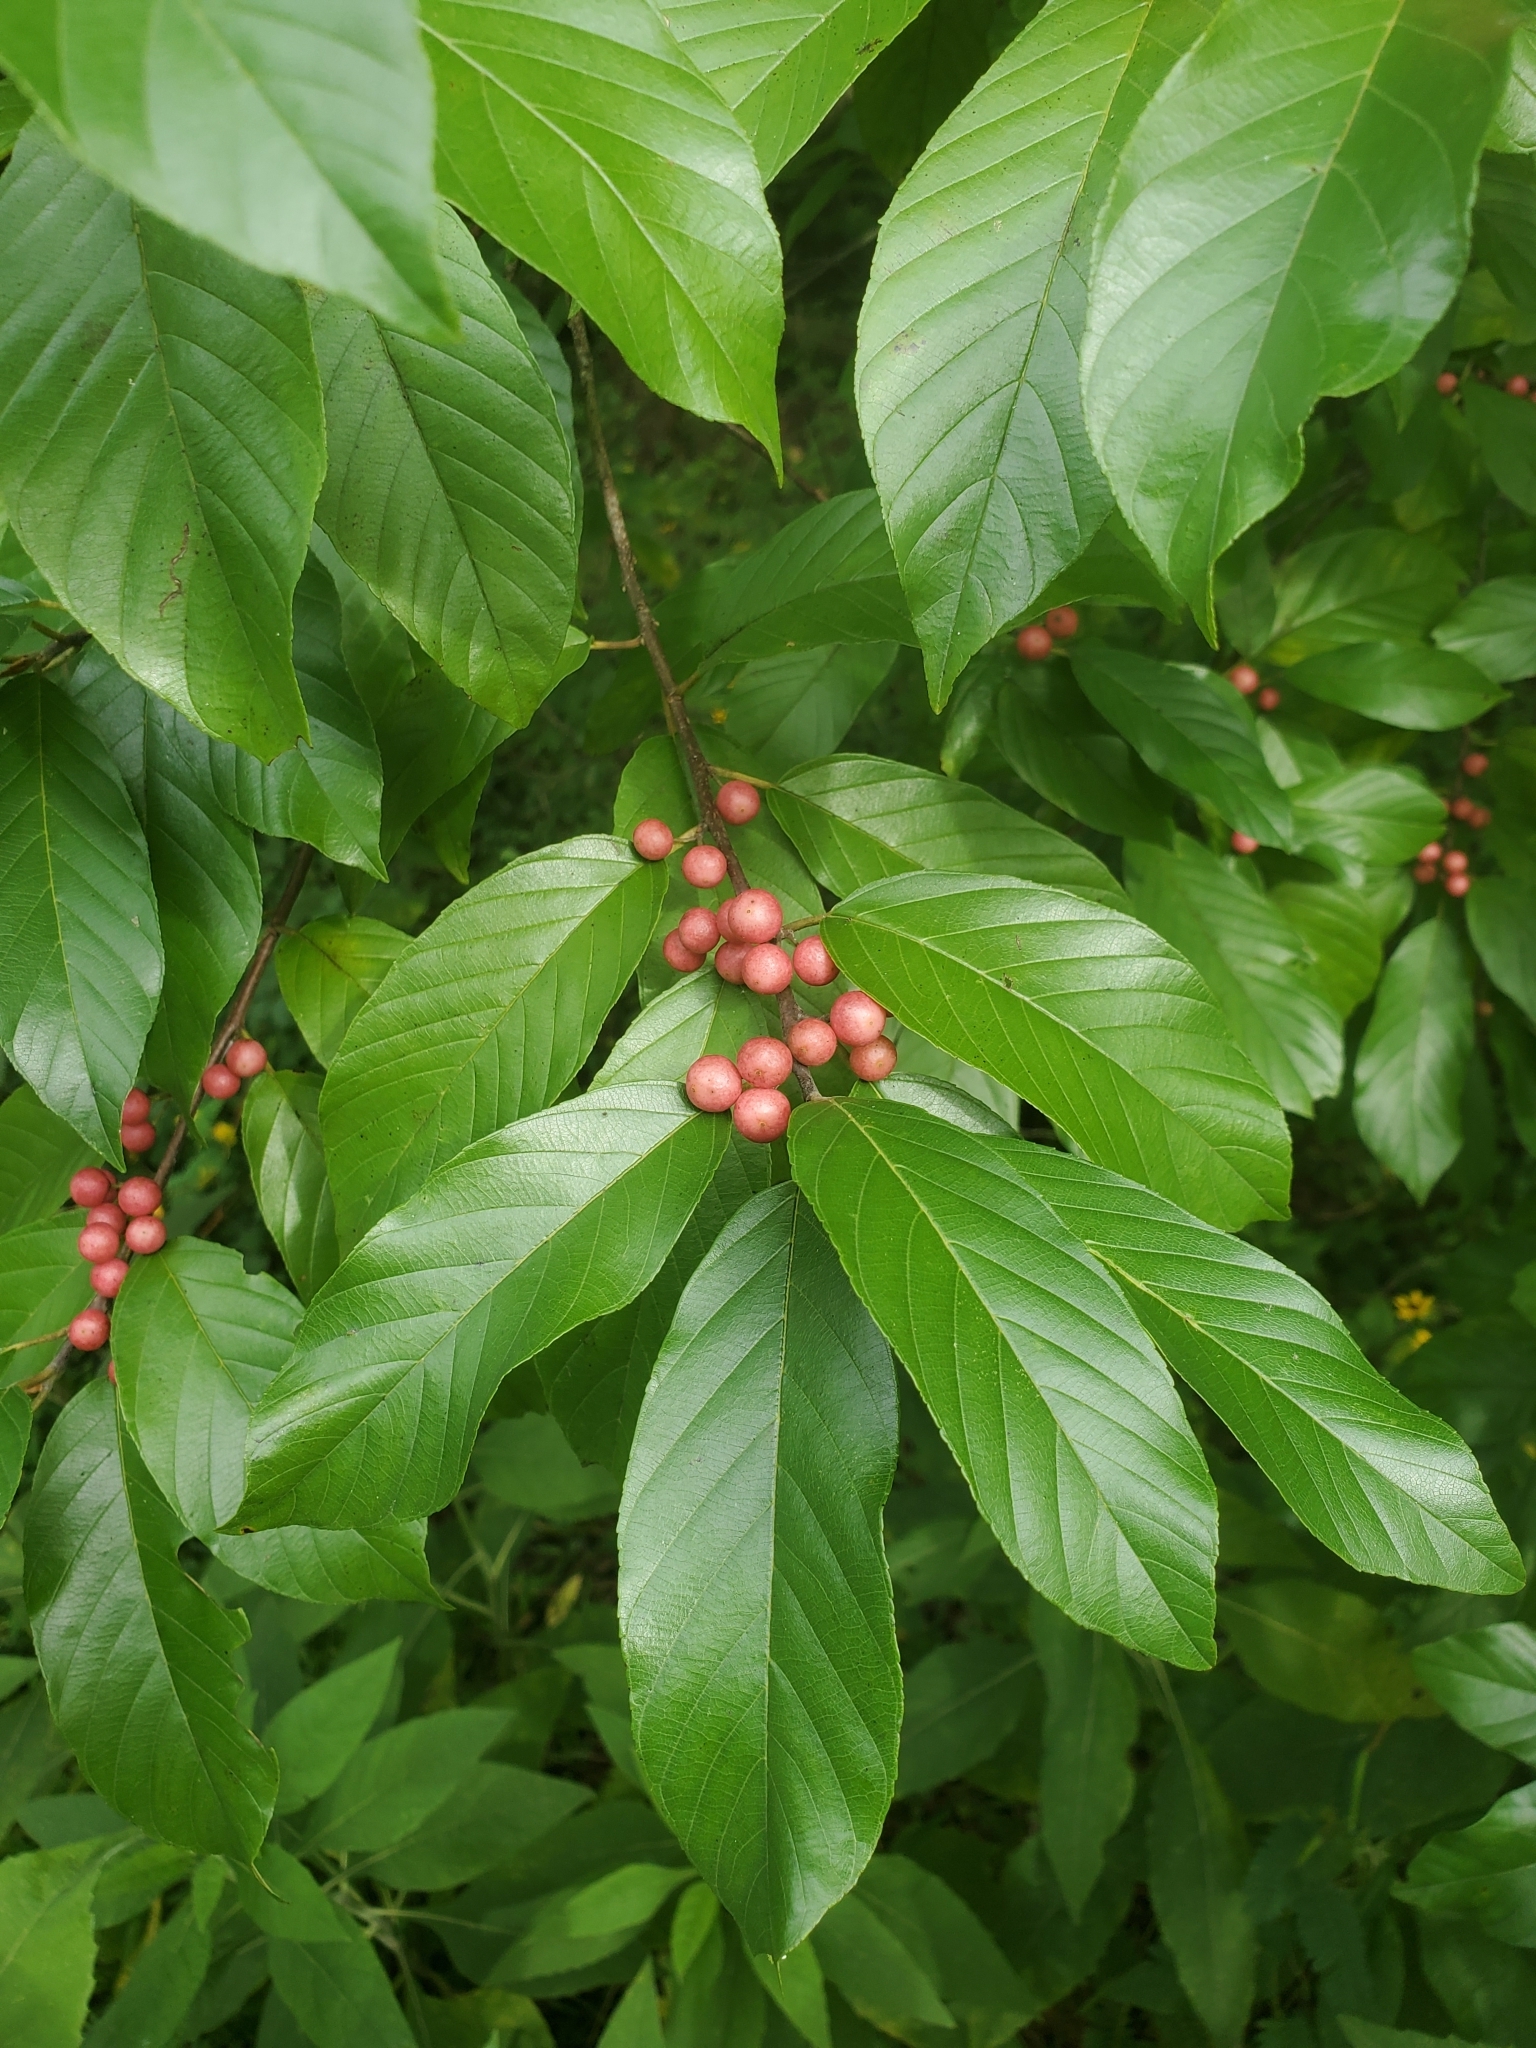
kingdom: Plantae
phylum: Tracheophyta
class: Magnoliopsida
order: Rosales
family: Rhamnaceae
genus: Frangula
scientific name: Frangula caroliniana
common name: Carolina buckthorn
